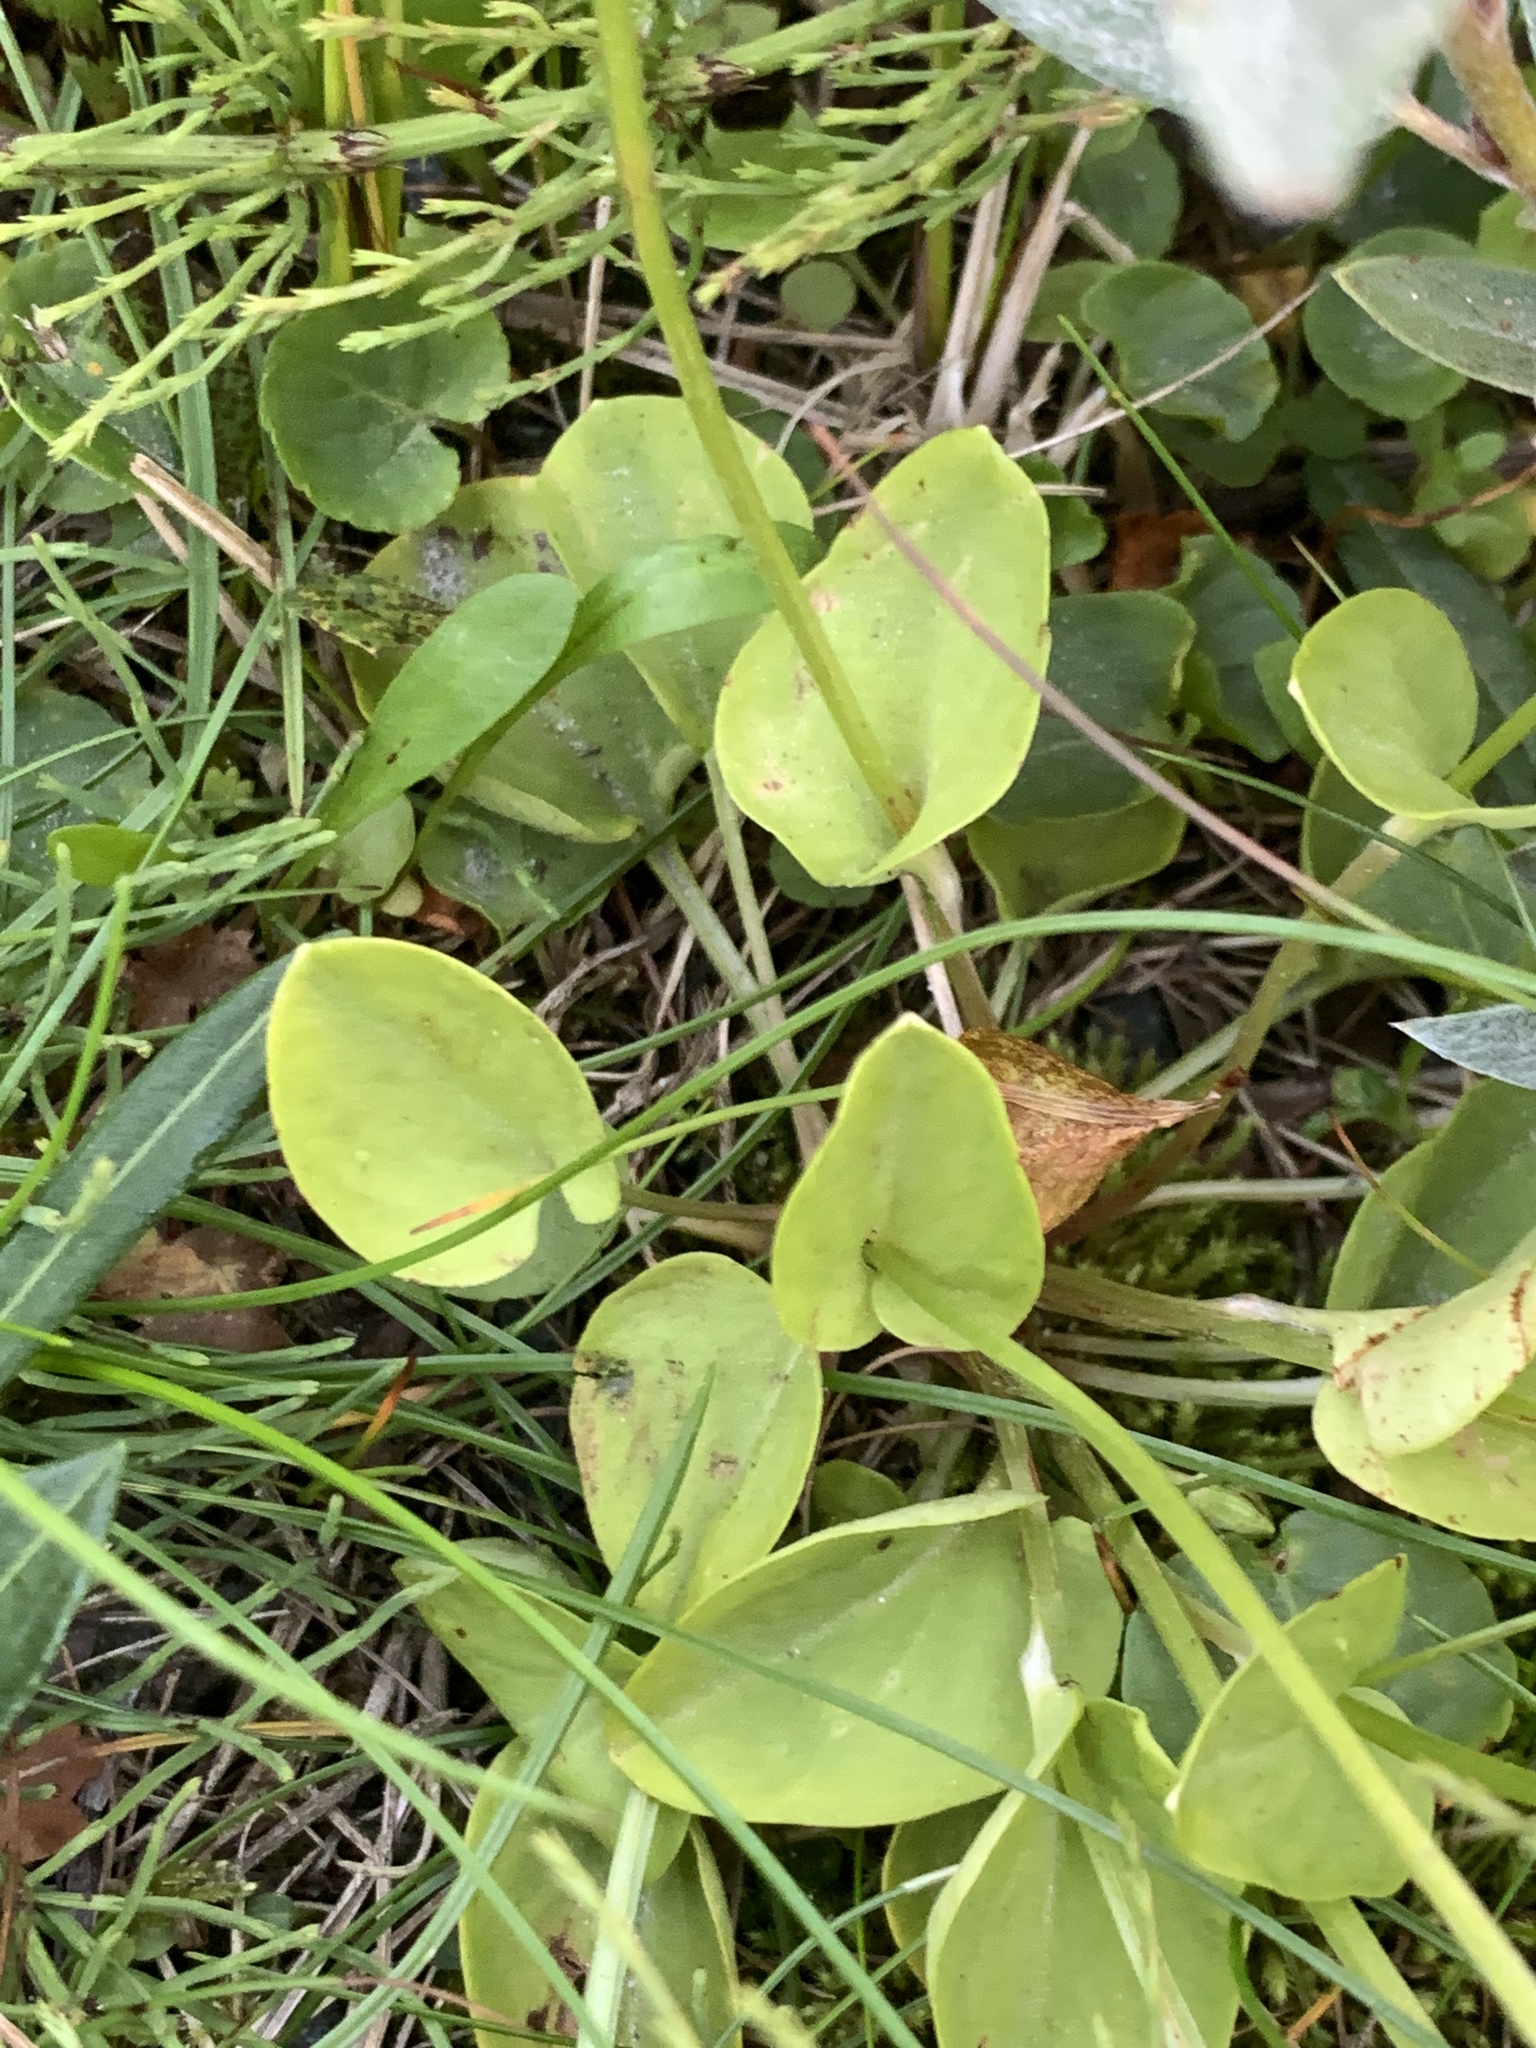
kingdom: Plantae
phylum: Tracheophyta
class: Magnoliopsida
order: Celastrales
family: Parnassiaceae
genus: Parnassia
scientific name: Parnassia palustris
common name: Grass-of-parnassus
